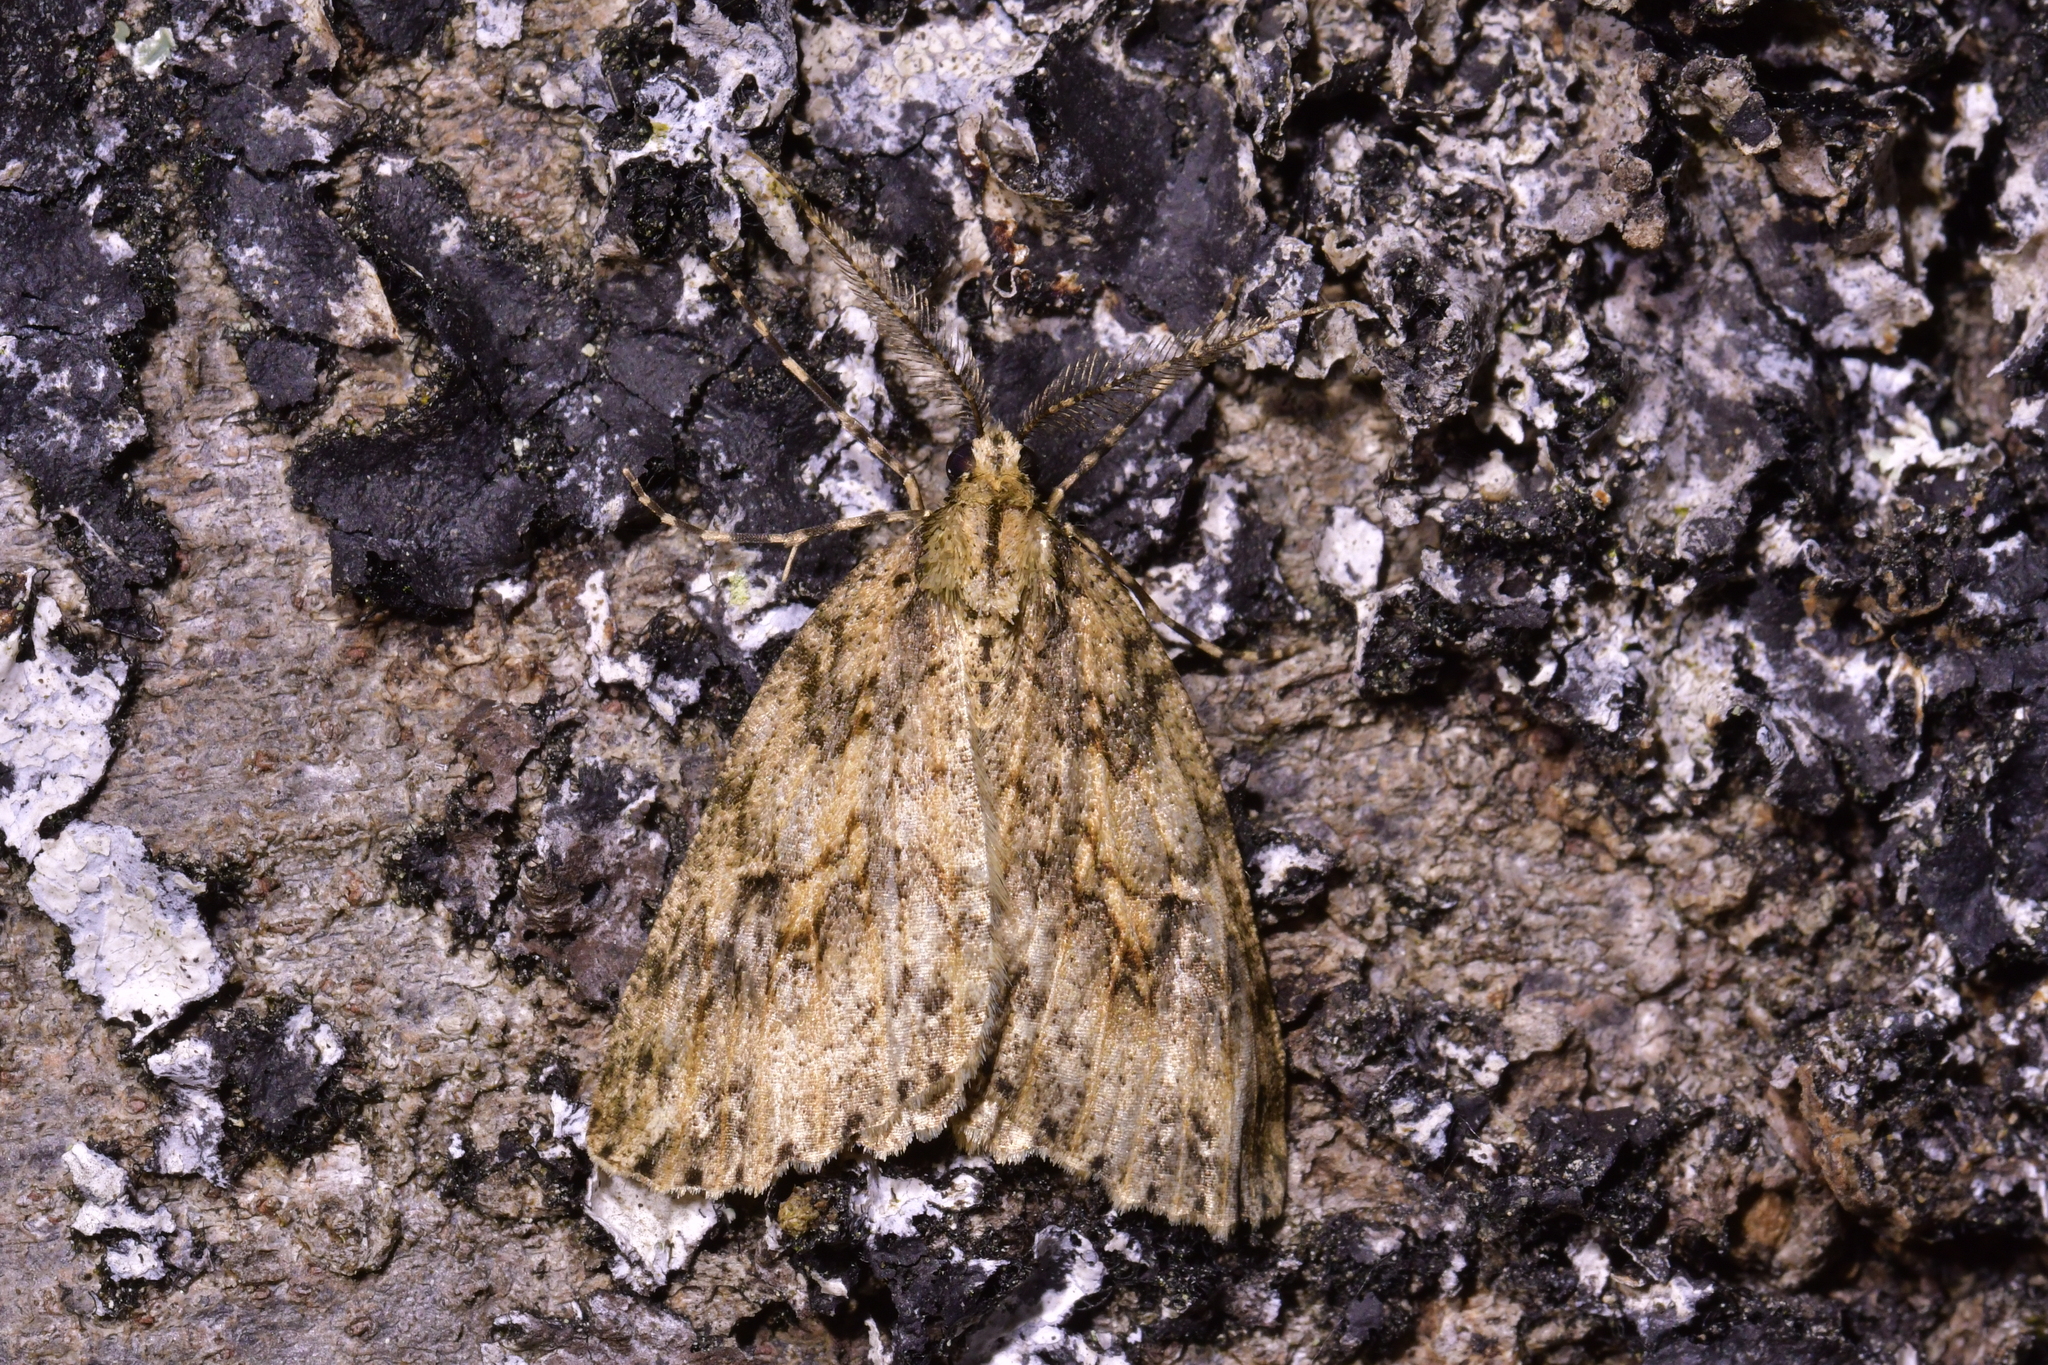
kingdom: Animalia
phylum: Arthropoda
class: Insecta
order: Lepidoptera
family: Geometridae
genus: Pseudocoremia
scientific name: Pseudocoremia rudisata
